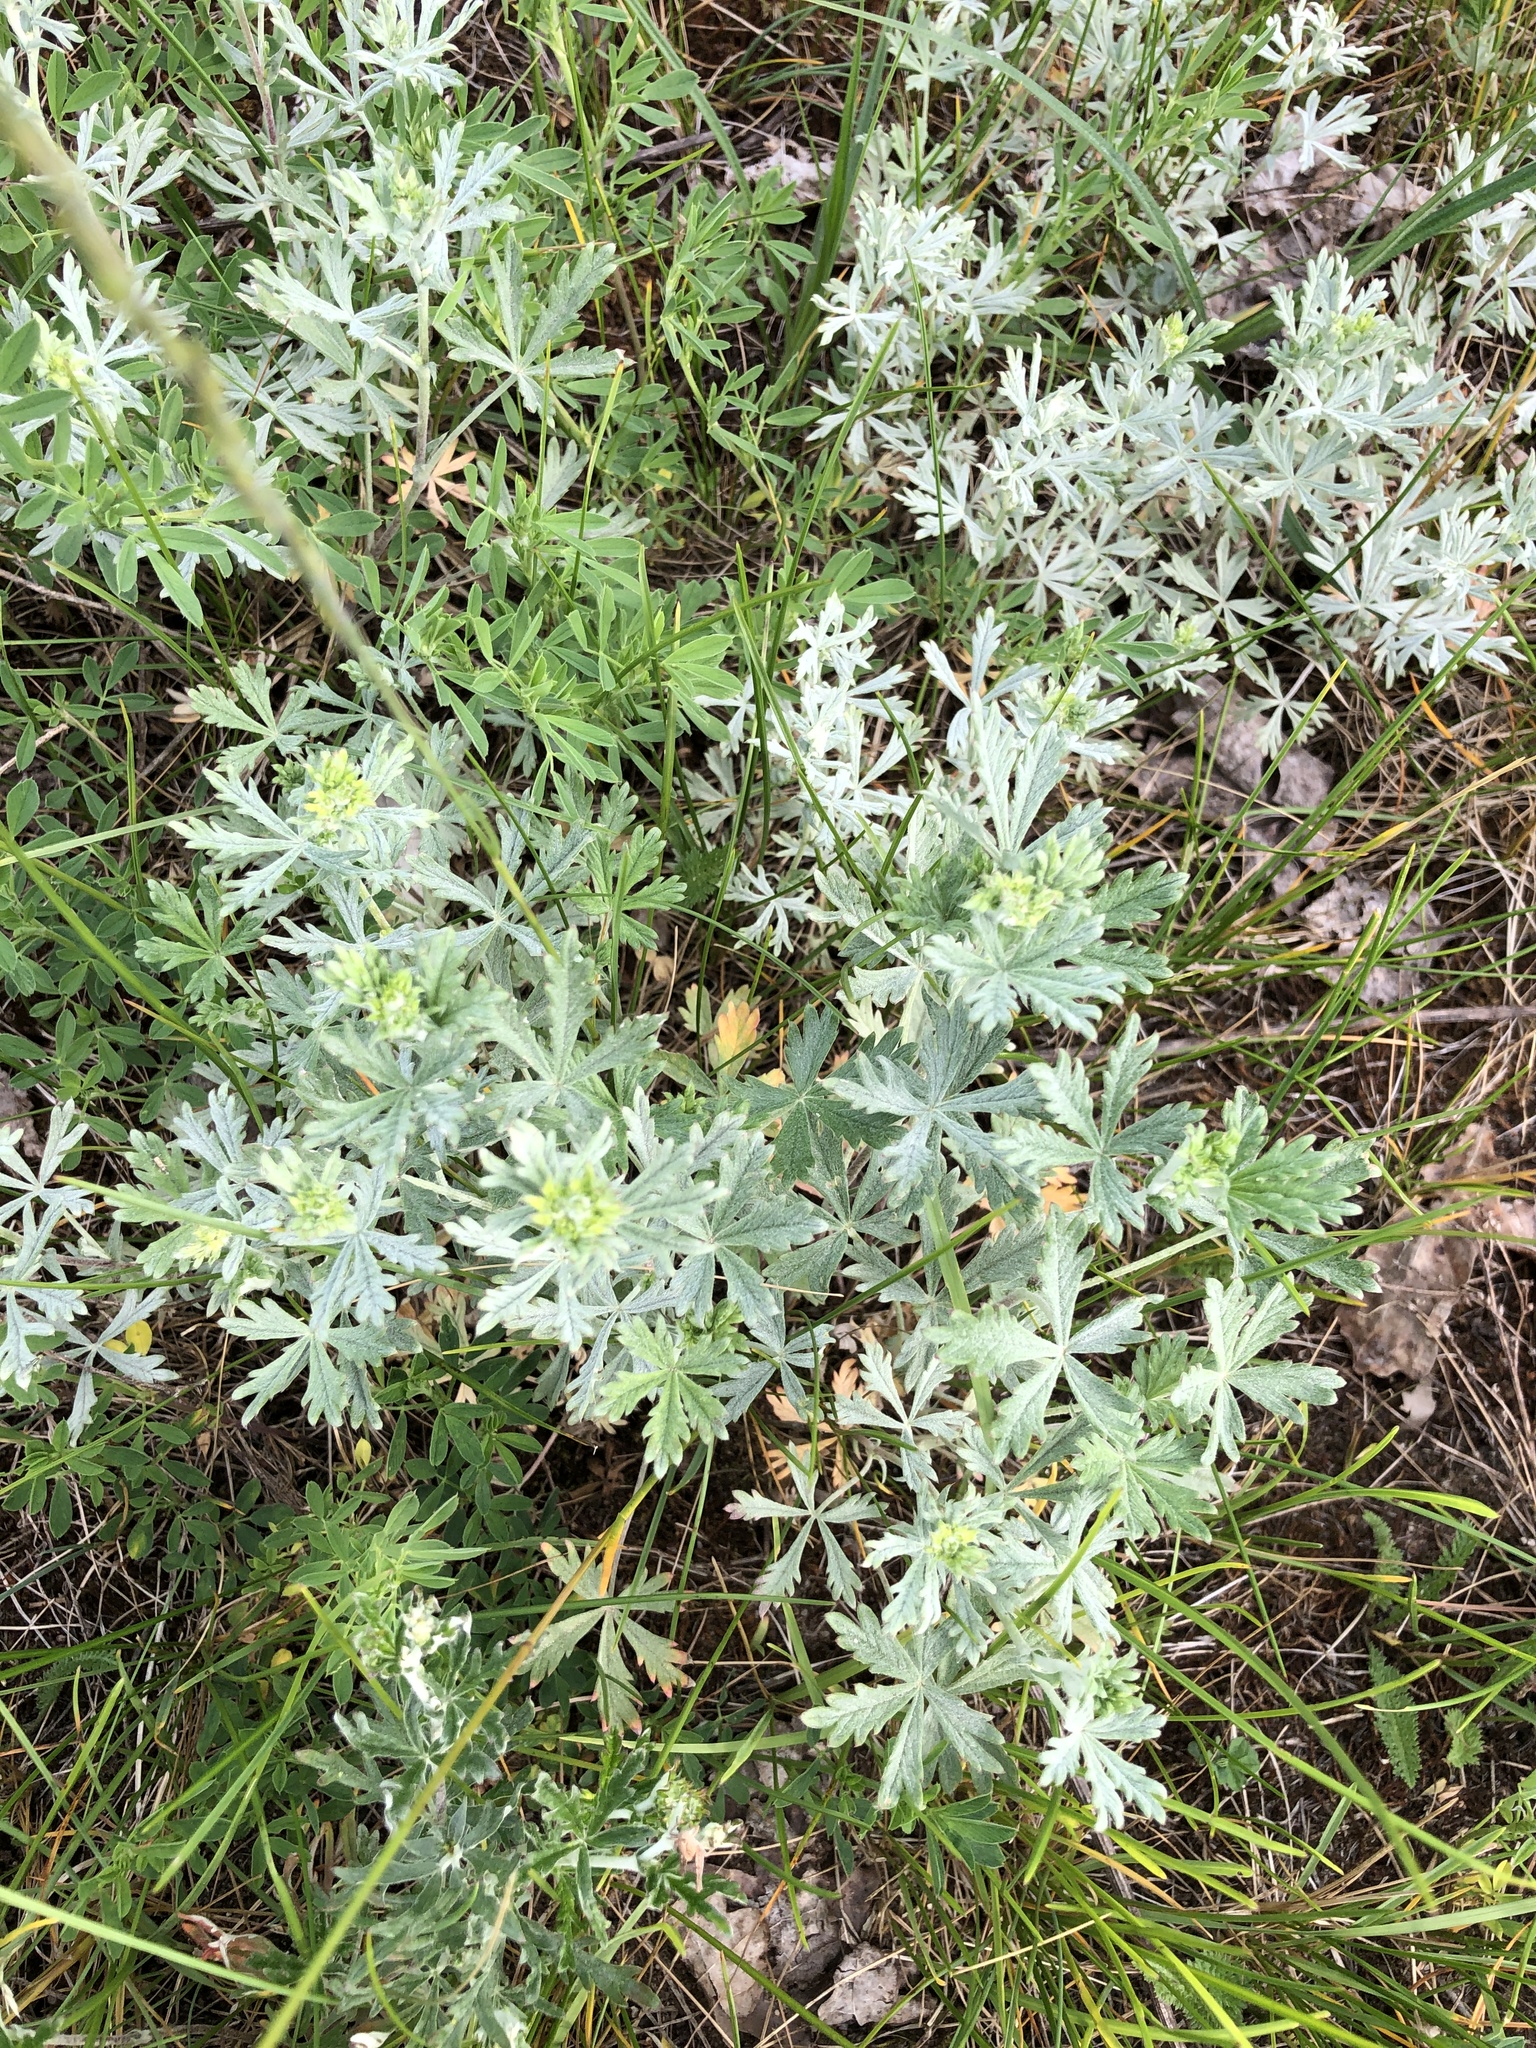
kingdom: Plantae
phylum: Tracheophyta
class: Magnoliopsida
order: Rosales
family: Rosaceae
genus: Potentilla
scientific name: Potentilla argentea
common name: Hoary cinquefoil
